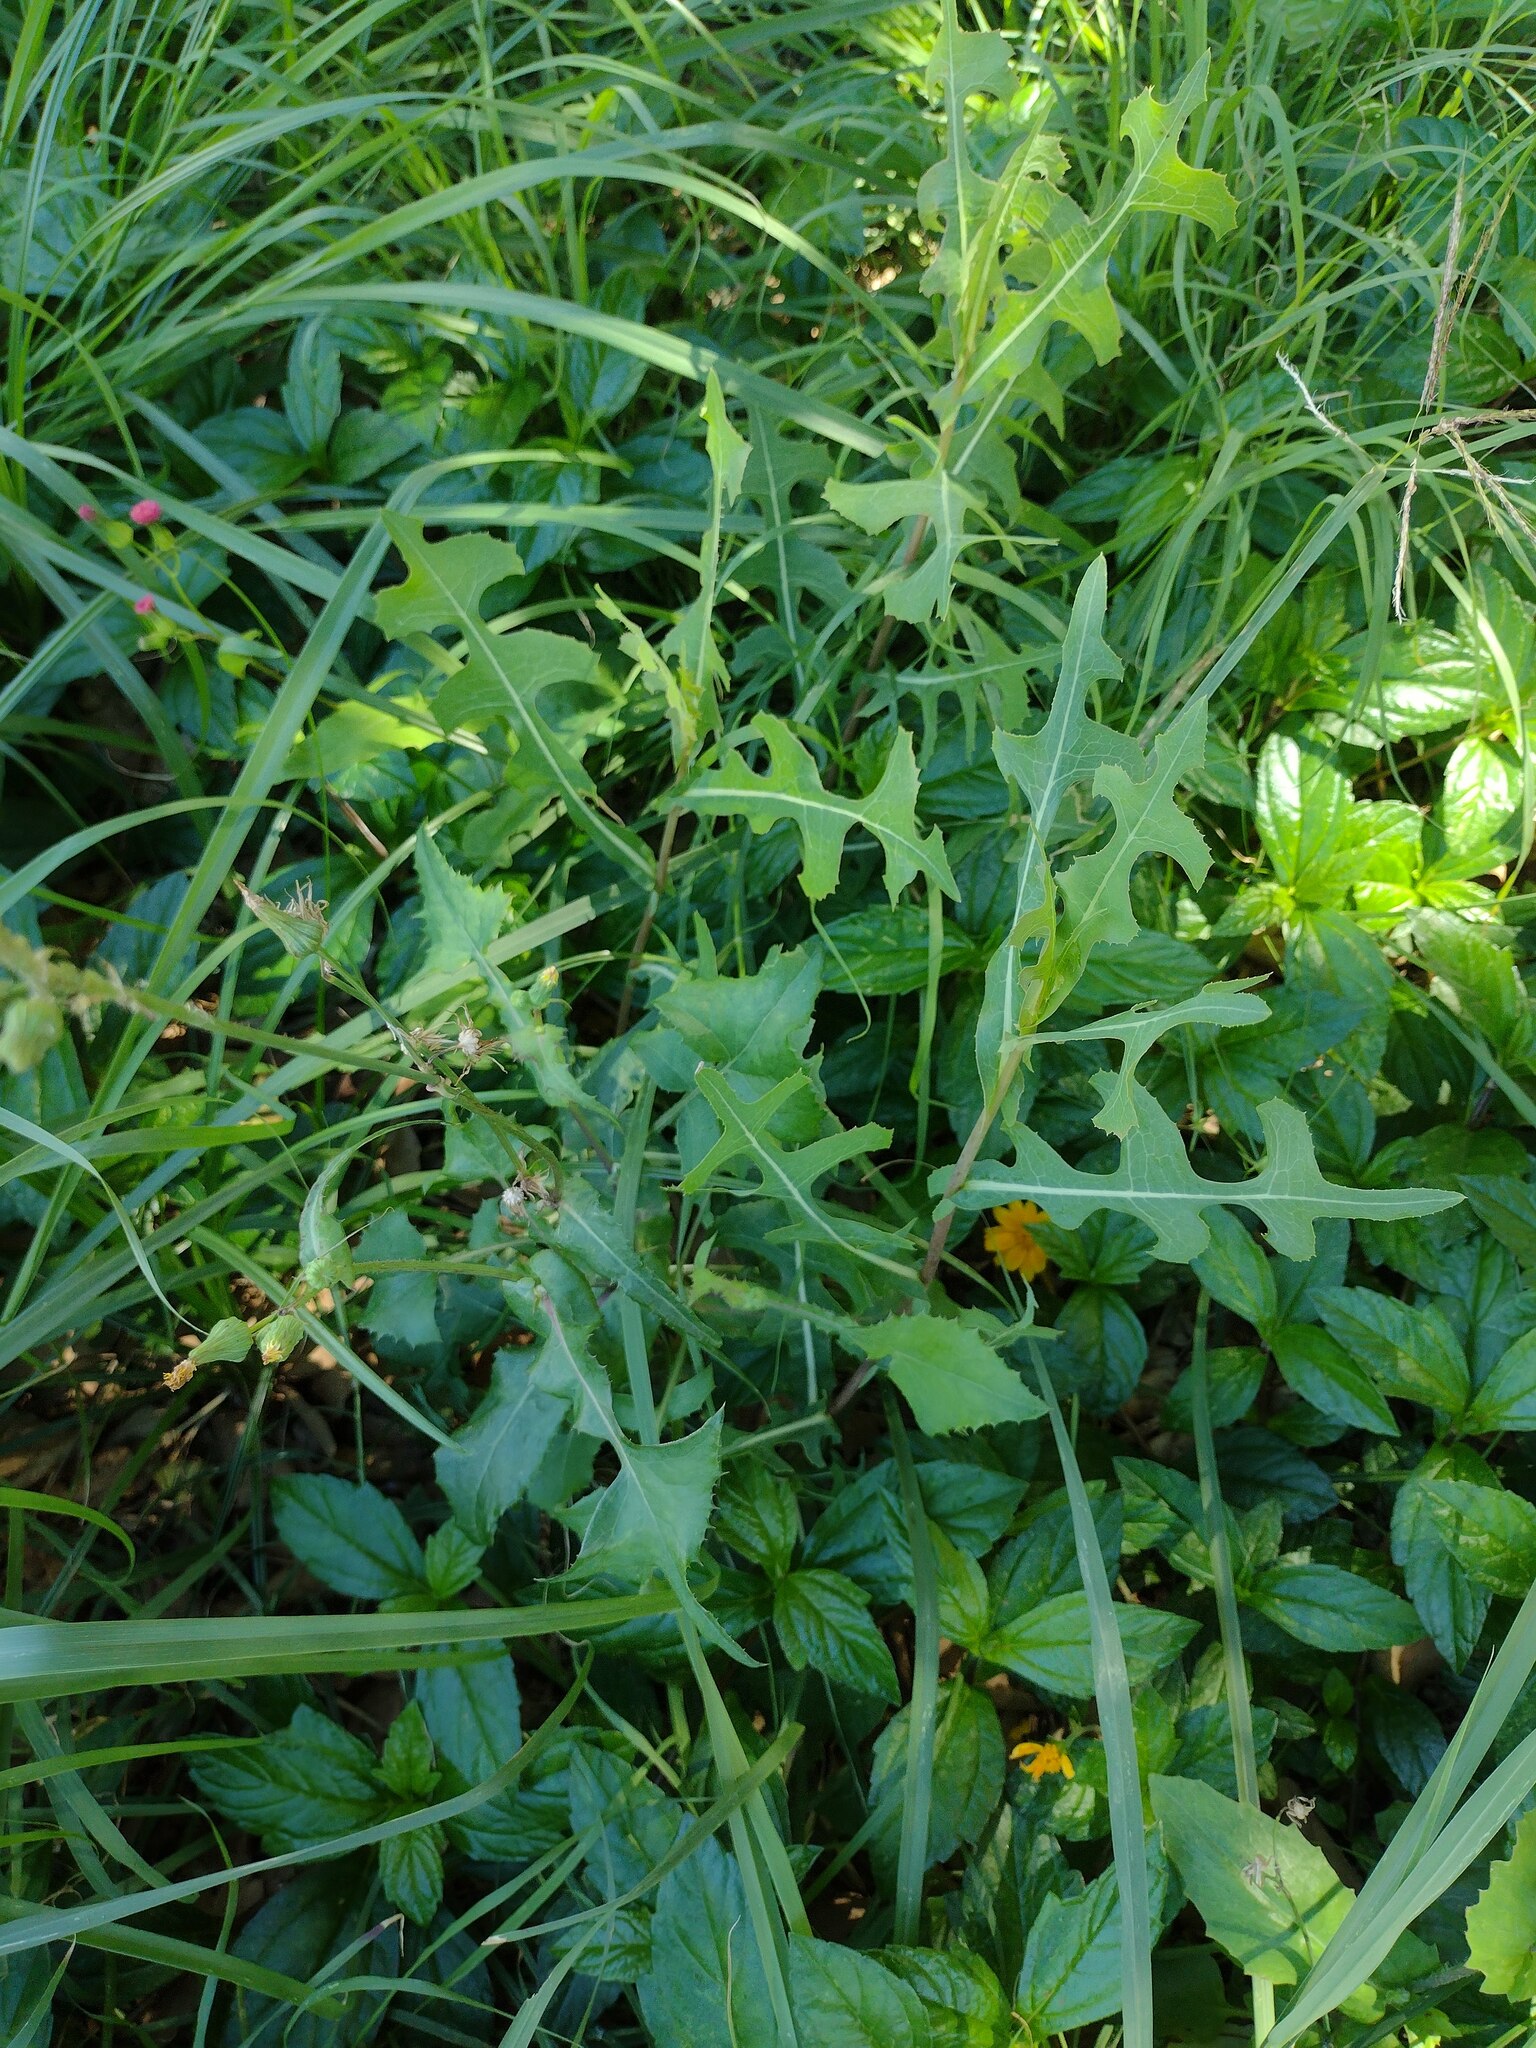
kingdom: Plantae
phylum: Tracheophyta
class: Magnoliopsida
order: Asterales
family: Asteraceae
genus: Lactuca
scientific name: Lactuca serriola
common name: Prickly lettuce
